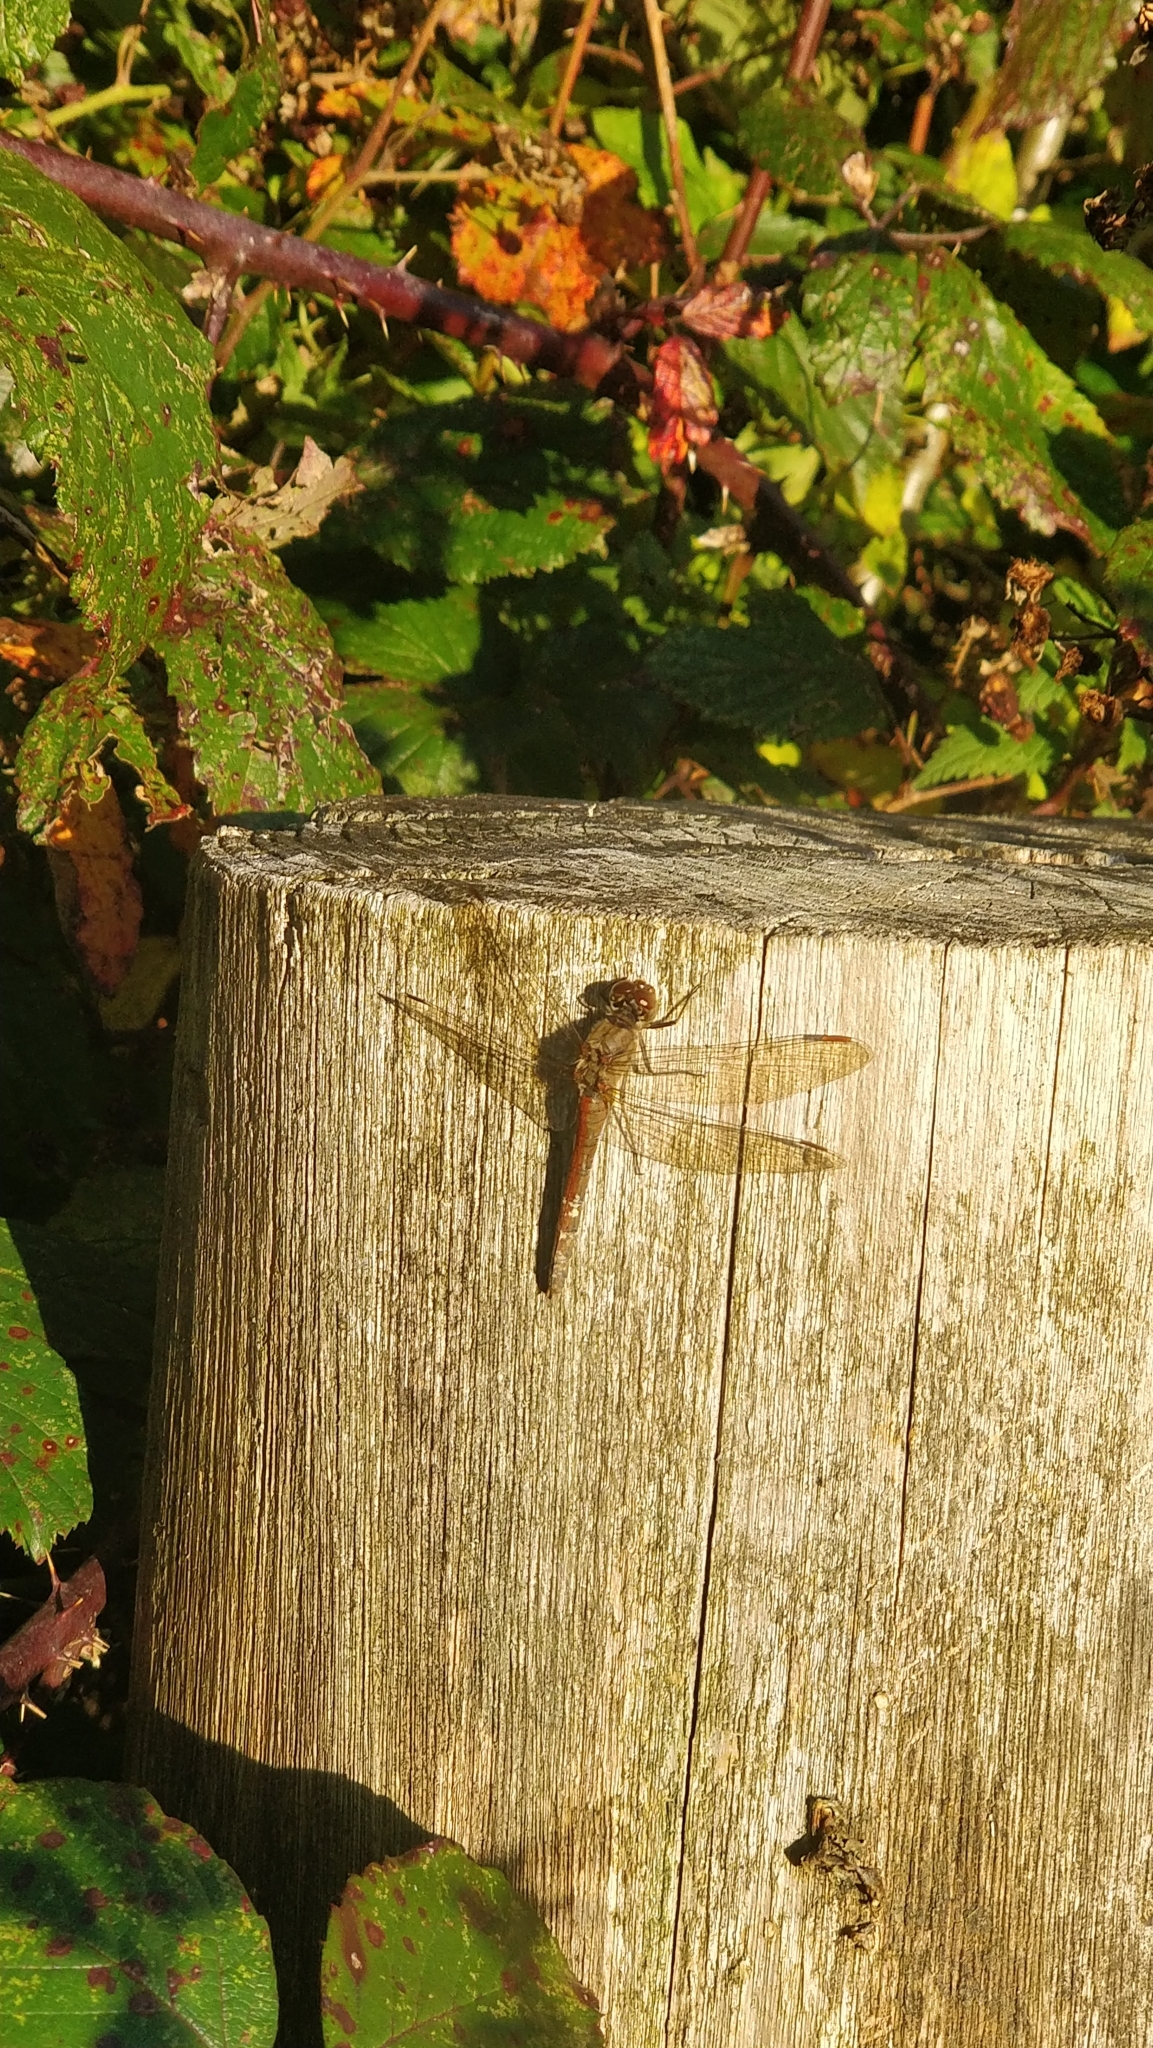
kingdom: Animalia
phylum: Arthropoda
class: Insecta
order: Odonata
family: Libellulidae
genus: Sympetrum
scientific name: Sympetrum striolatum
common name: Common darter
